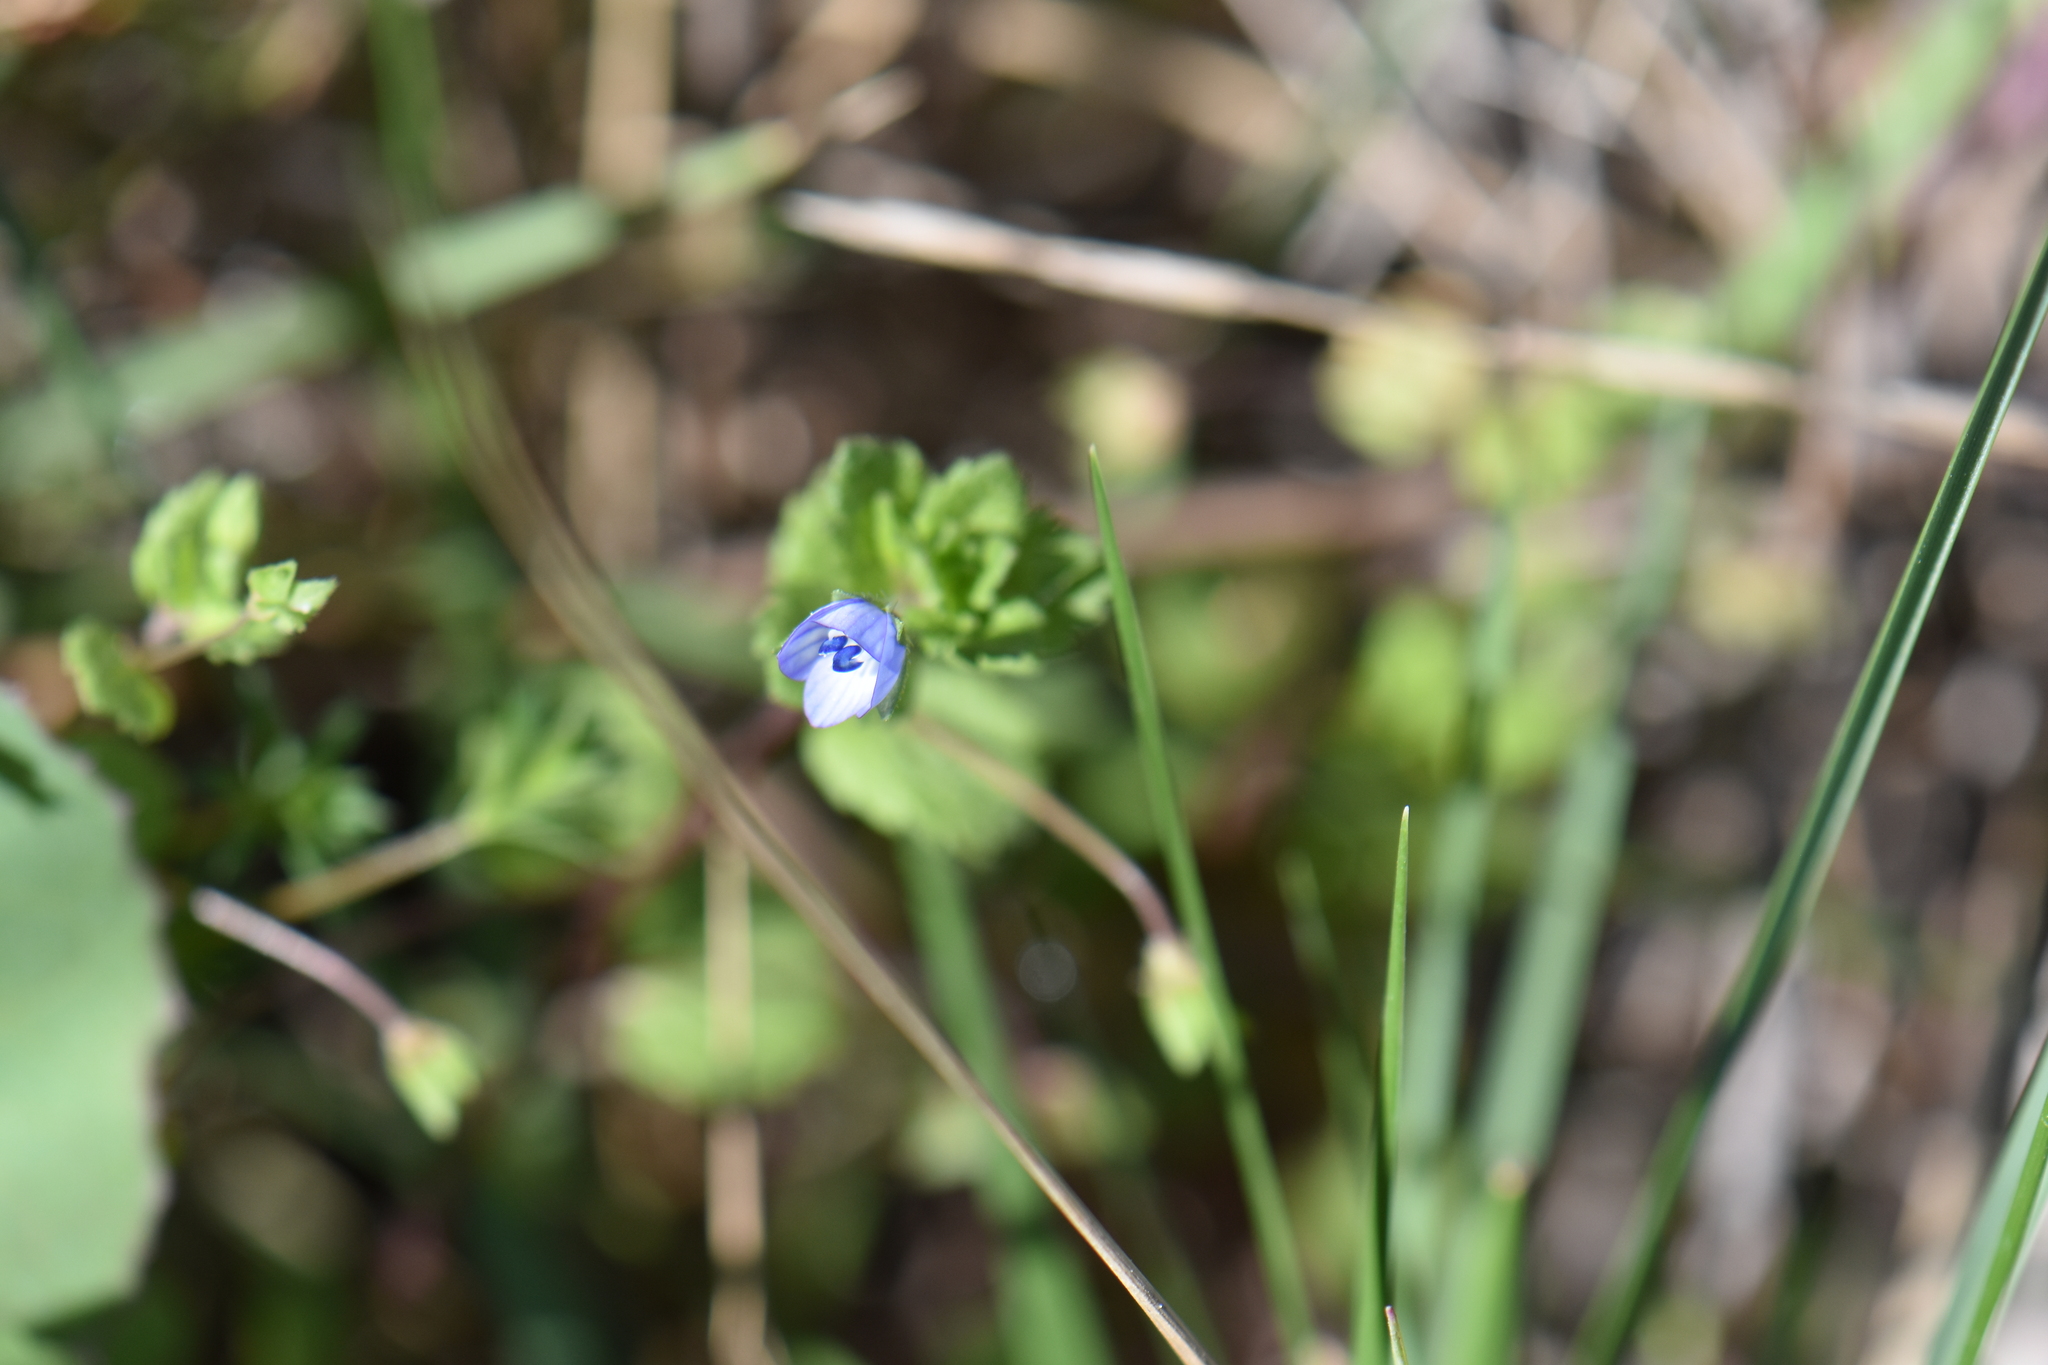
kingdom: Plantae
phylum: Tracheophyta
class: Magnoliopsida
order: Lamiales
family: Plantaginaceae
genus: Veronica
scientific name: Veronica persica
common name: Common field-speedwell
